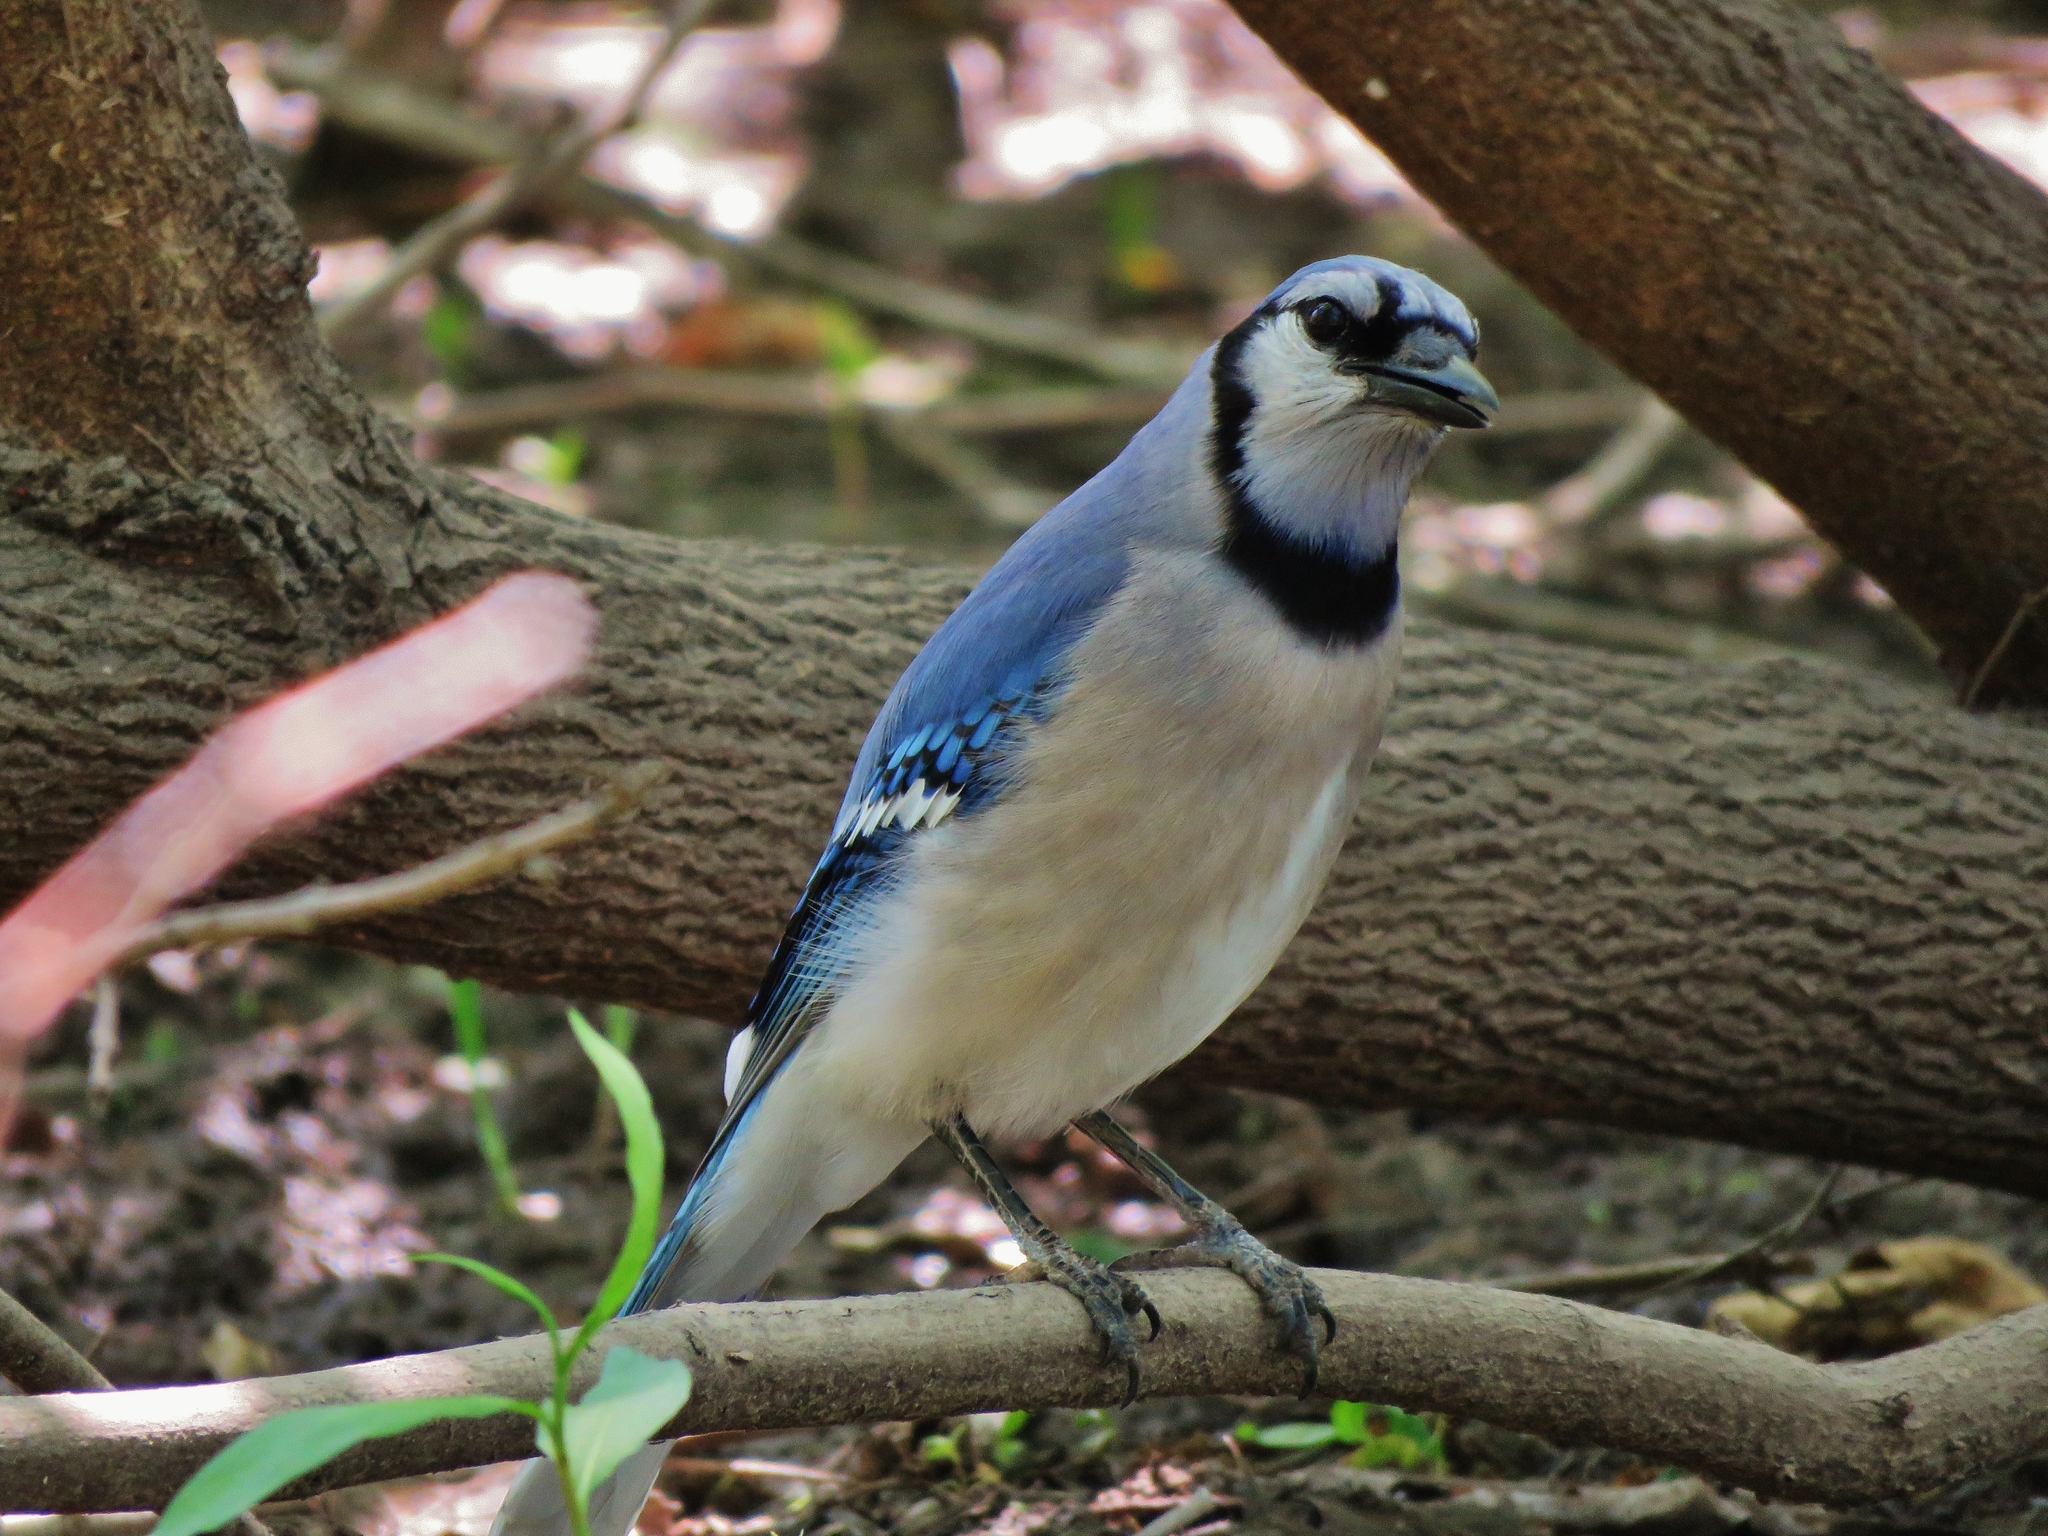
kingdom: Animalia
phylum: Chordata
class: Aves
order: Passeriformes
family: Corvidae
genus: Cyanocitta
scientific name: Cyanocitta cristata
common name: Blue jay
